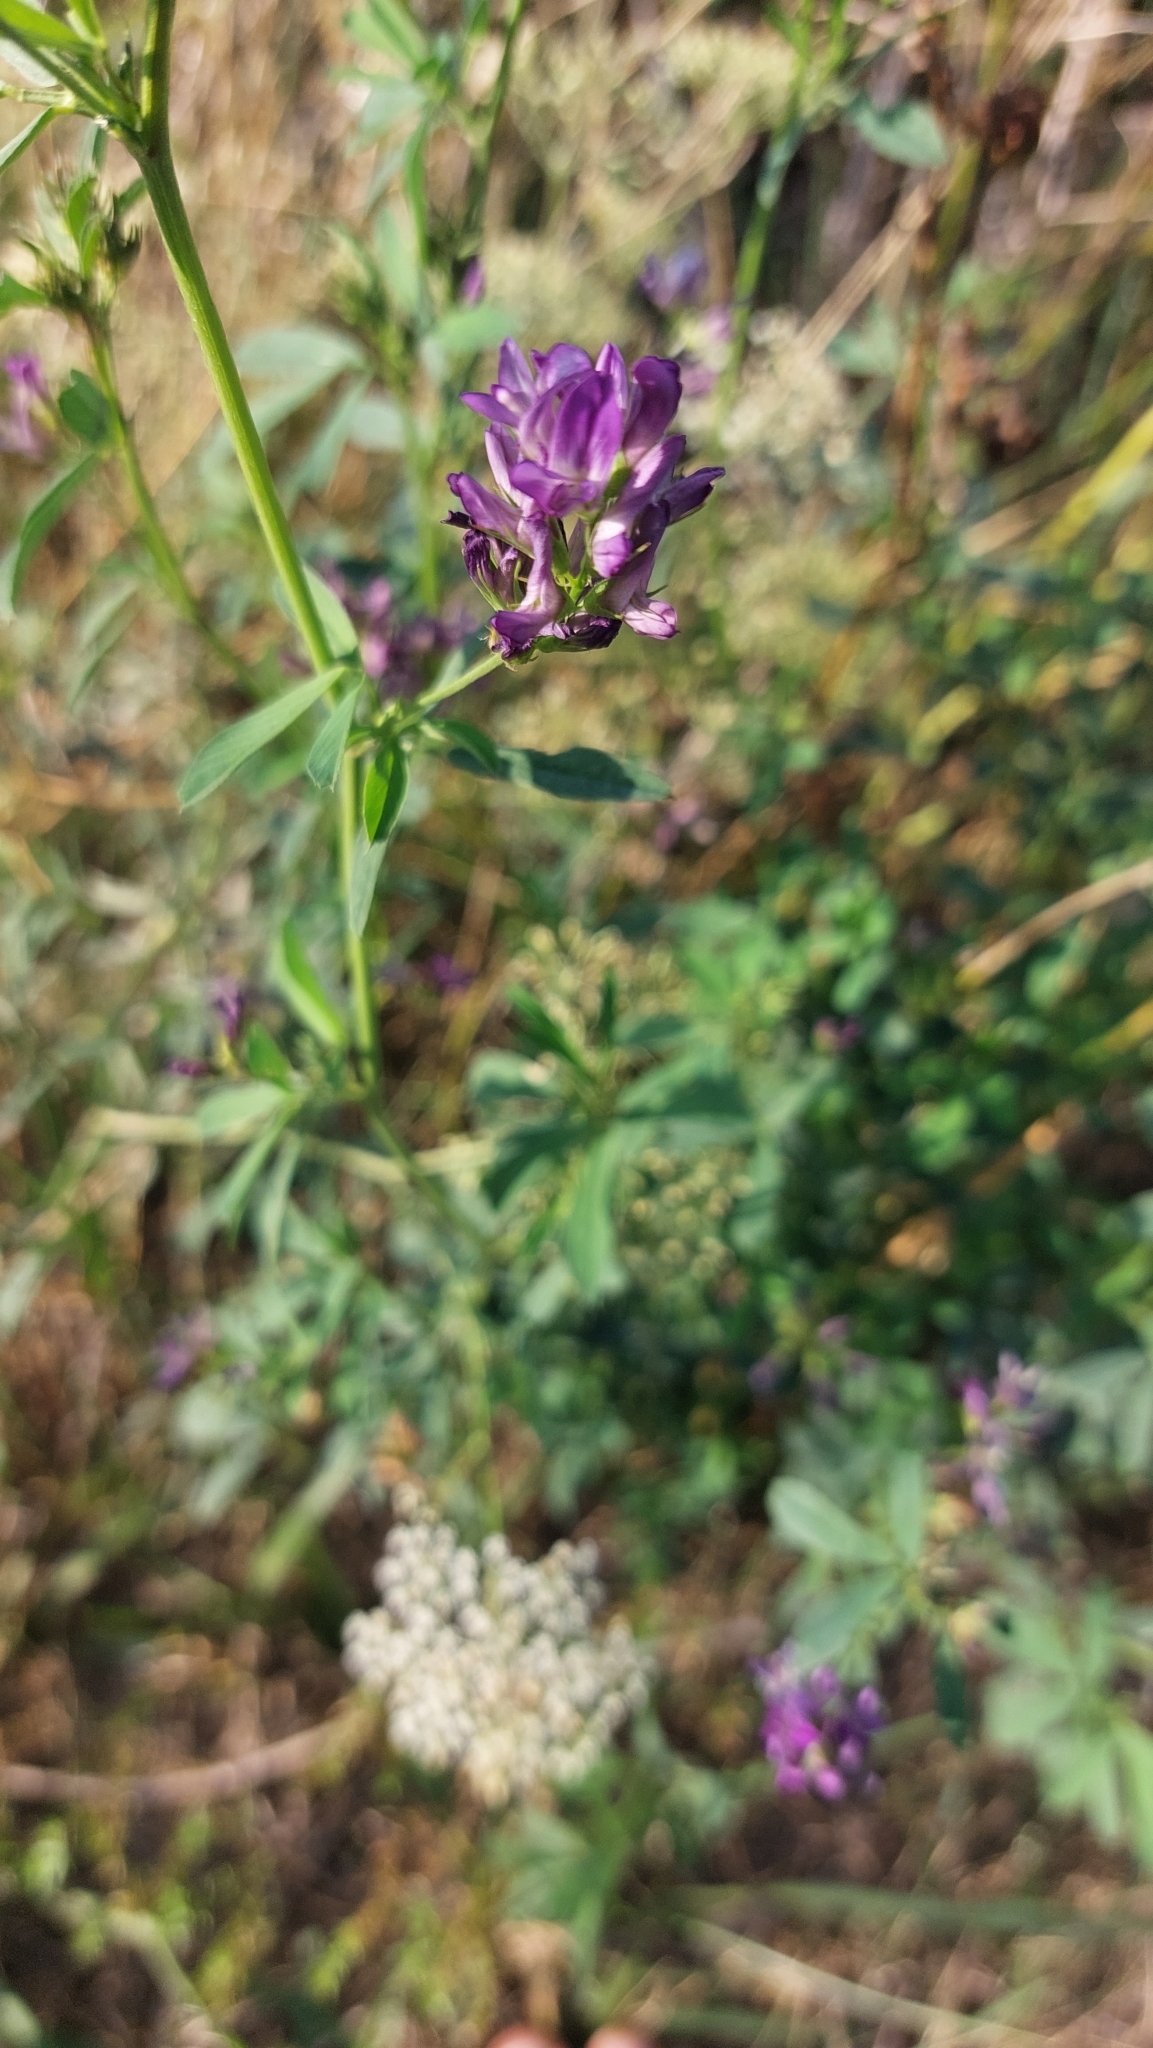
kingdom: Plantae
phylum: Tracheophyta
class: Magnoliopsida
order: Fabales
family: Fabaceae
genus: Medicago
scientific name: Medicago
